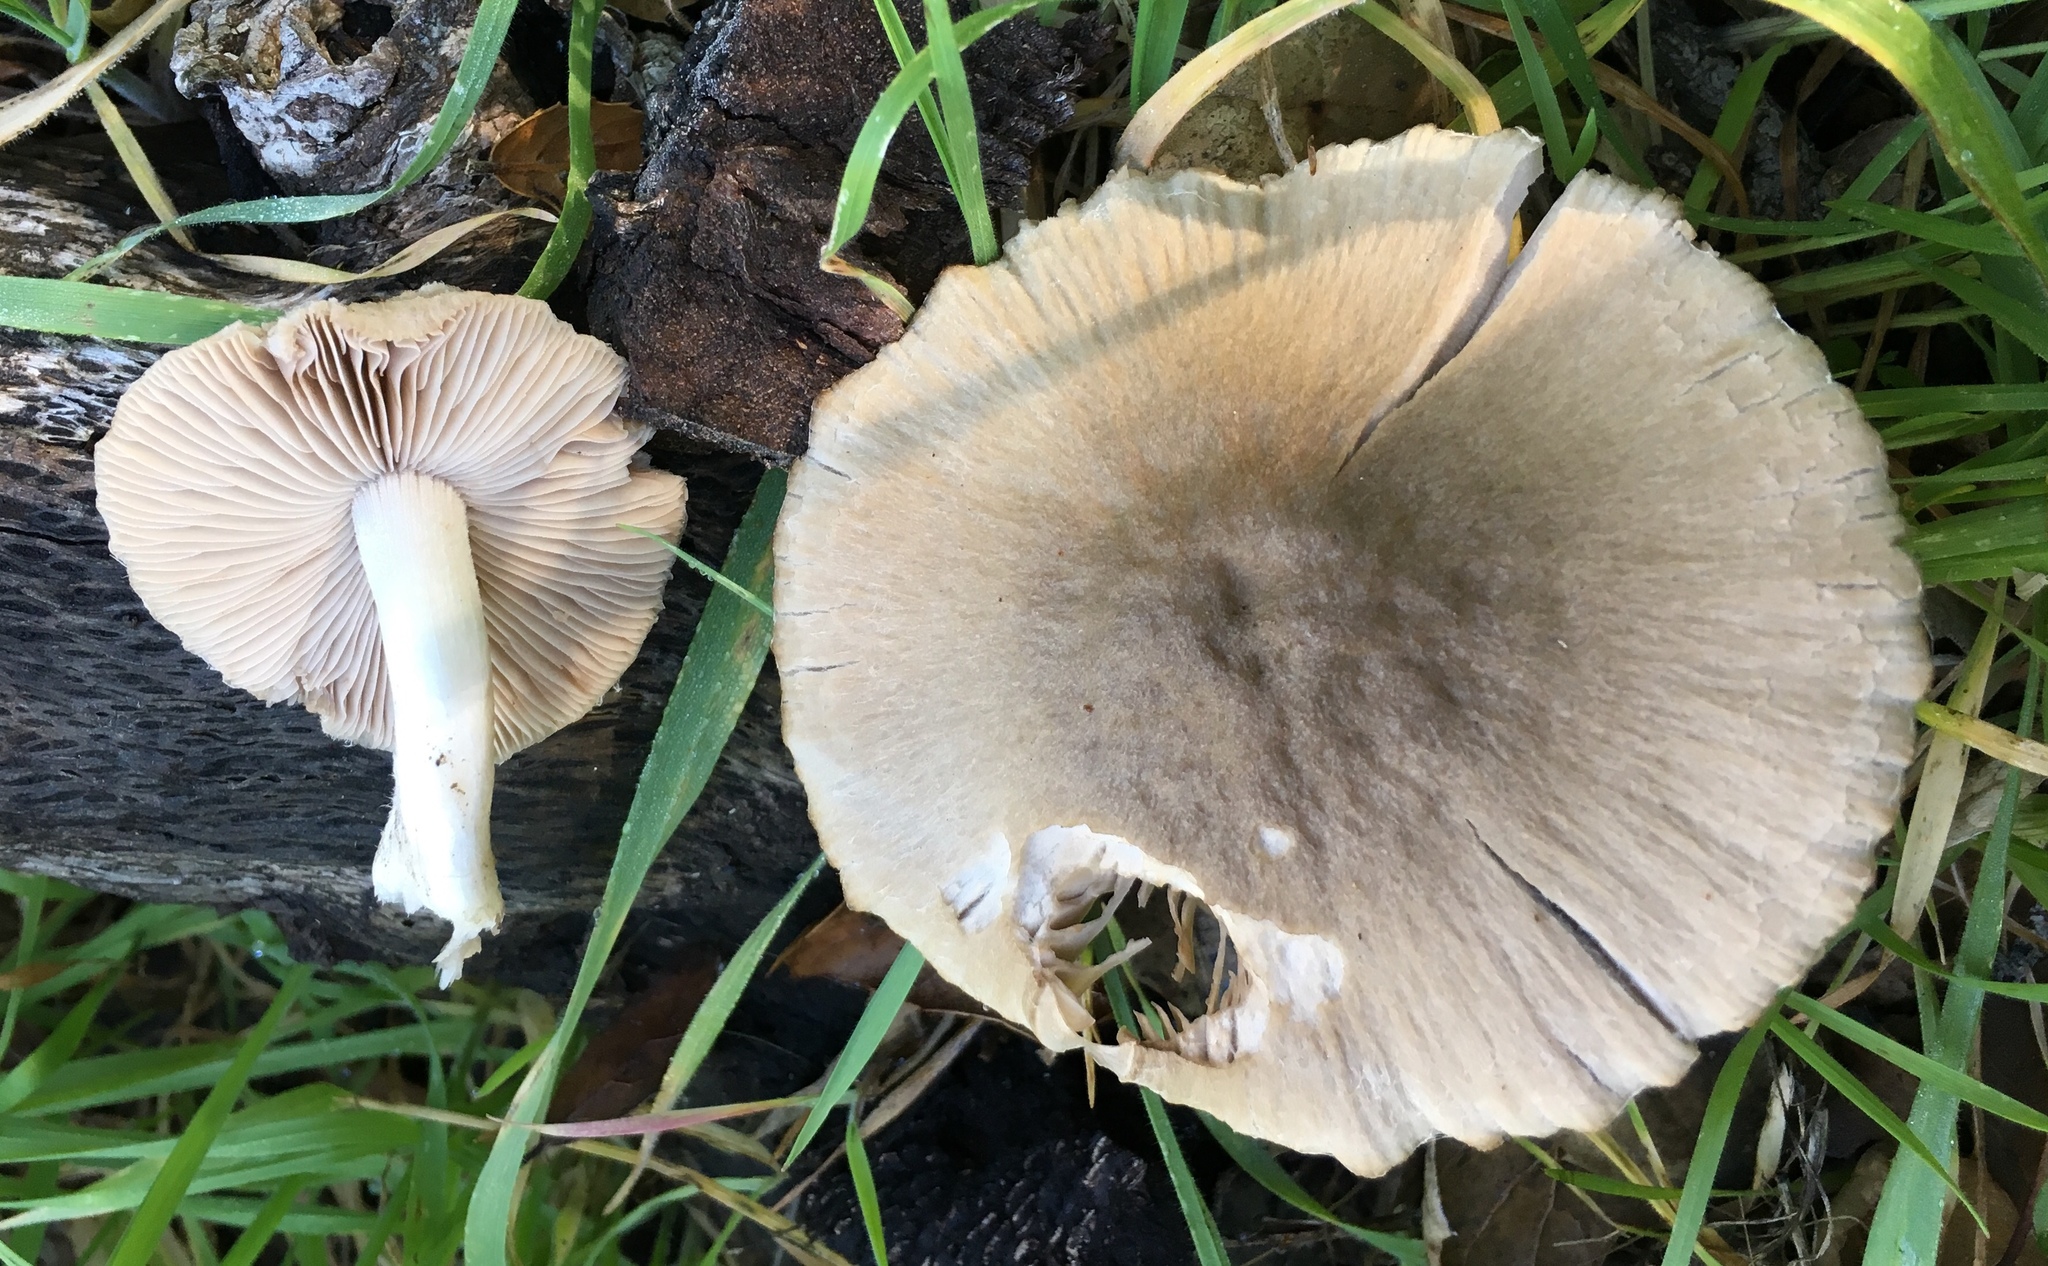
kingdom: Fungi
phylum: Basidiomycota
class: Agaricomycetes
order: Agaricales
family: Psathyrellaceae
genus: Psathyrella
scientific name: Psathyrella uliginicola
